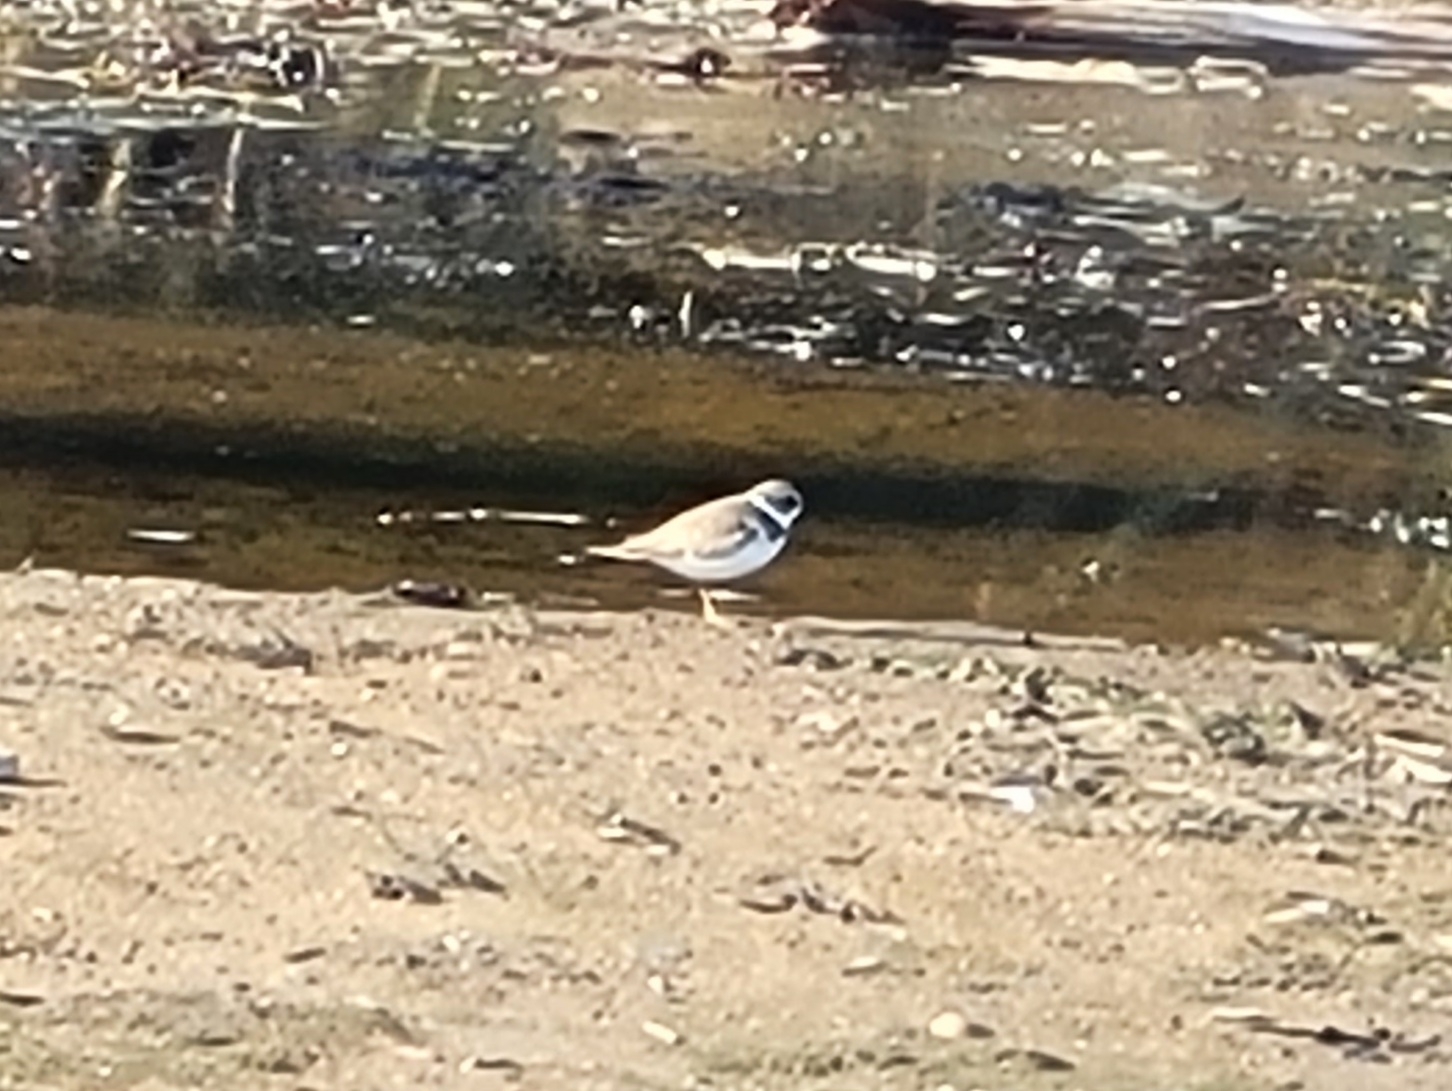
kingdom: Animalia
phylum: Chordata
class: Aves
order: Charadriiformes
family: Charadriidae
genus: Charadrius
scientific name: Charadrius semipalmatus
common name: Semipalmated plover
